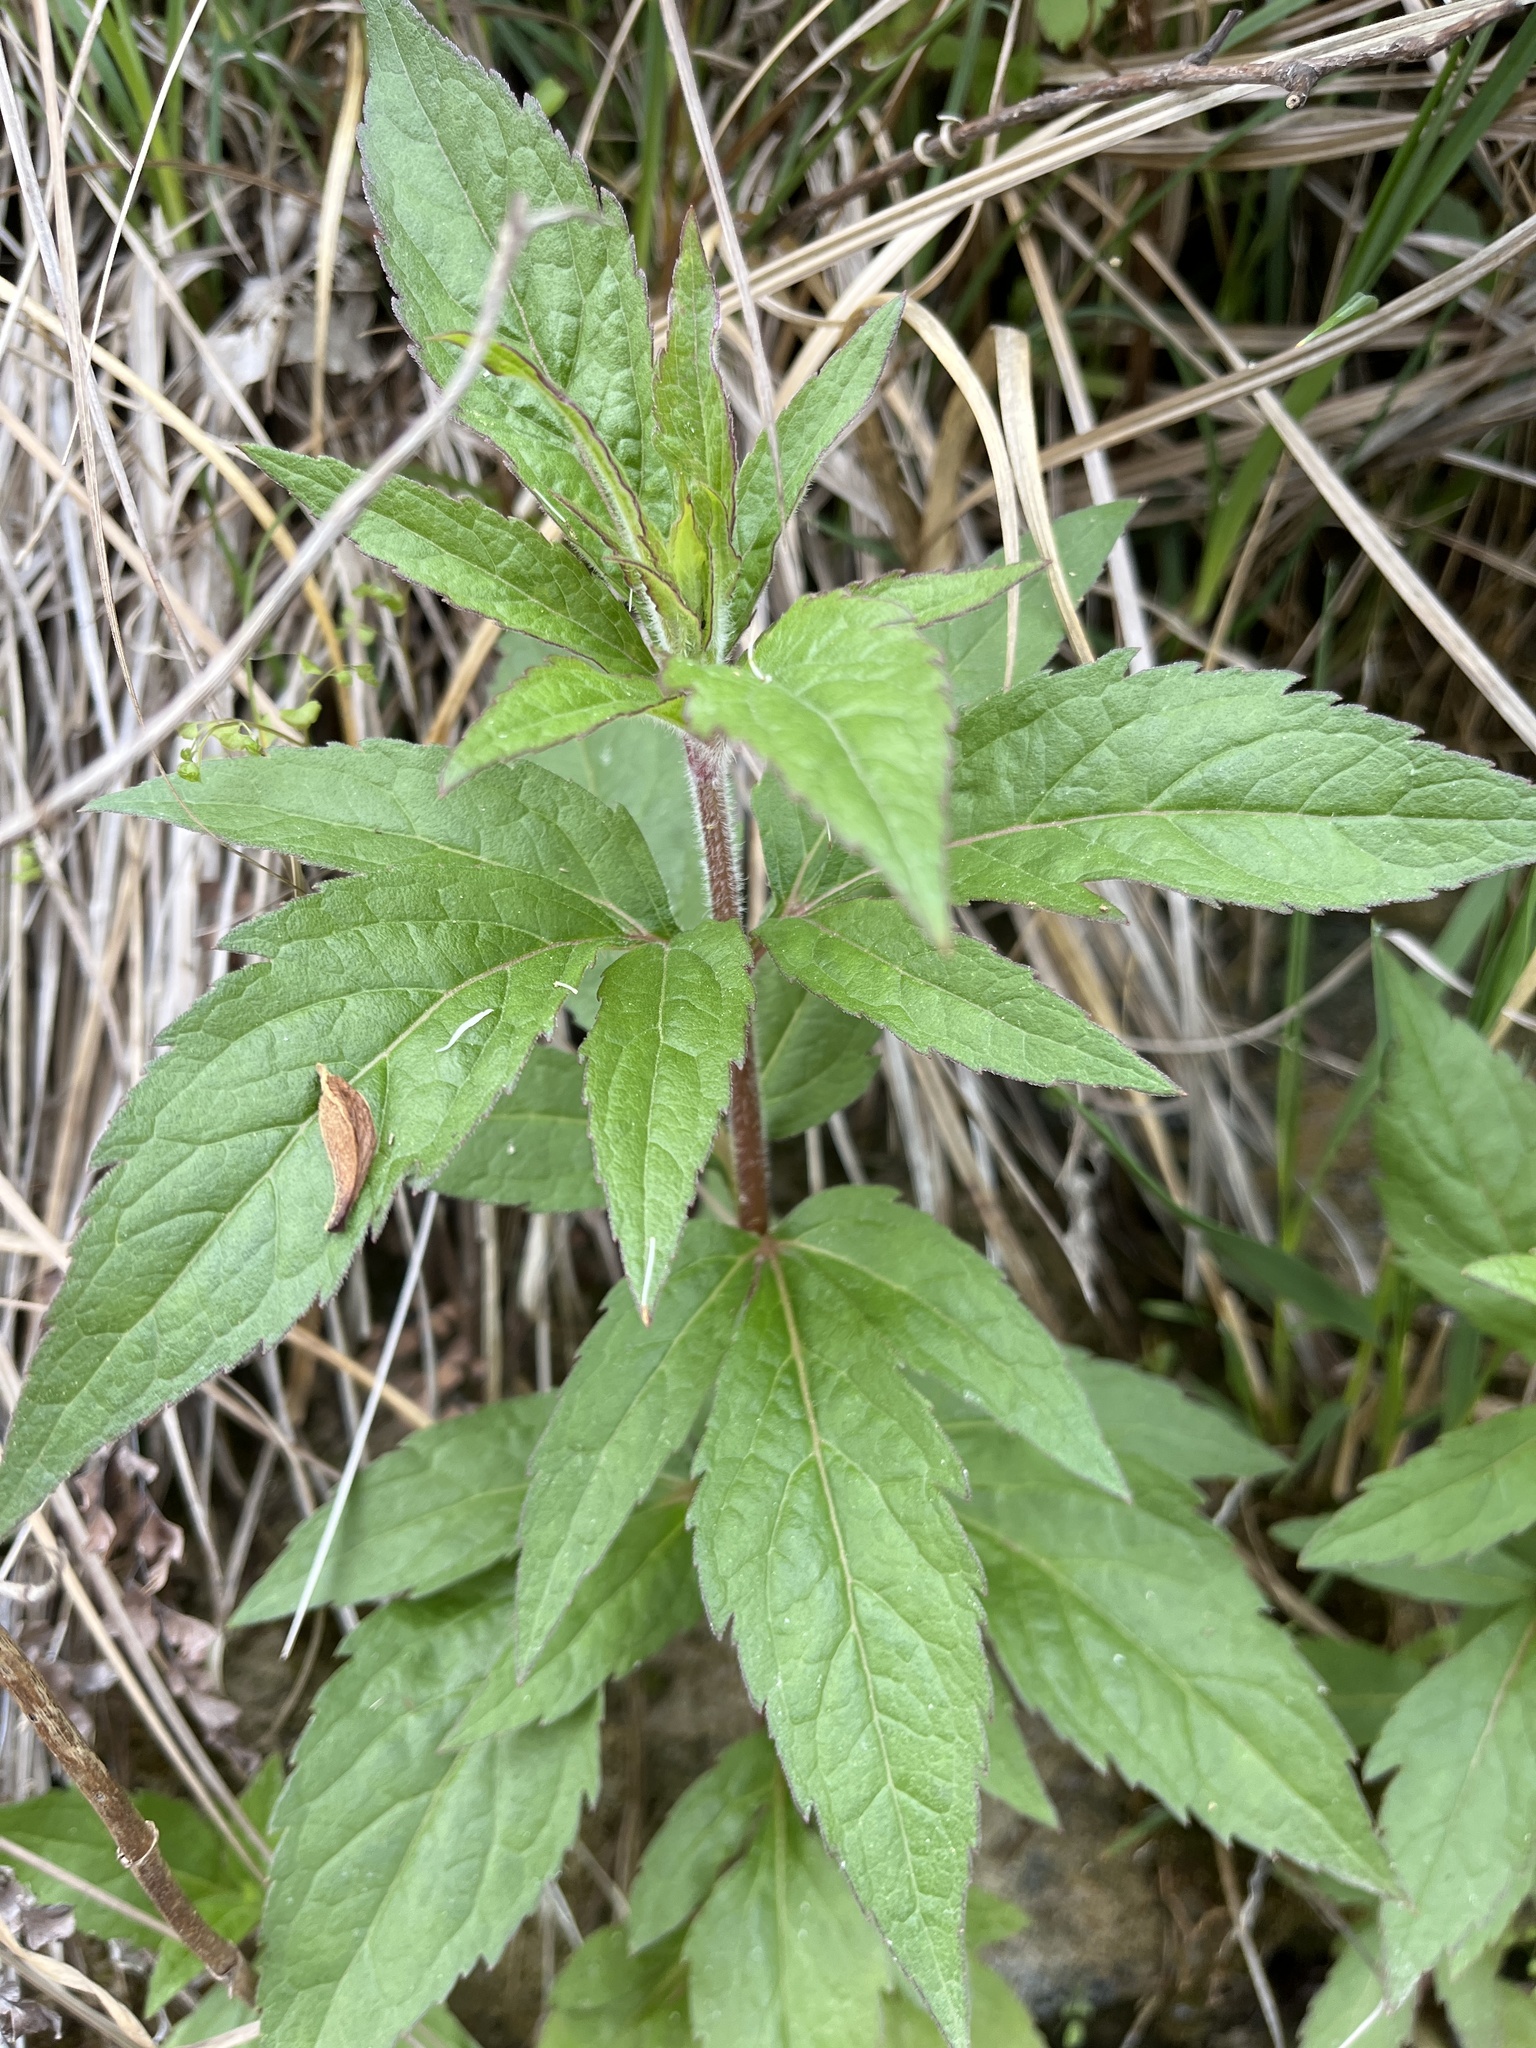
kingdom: Plantae
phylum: Tracheophyta
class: Magnoliopsida
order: Asterales
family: Asteraceae
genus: Eupatorium
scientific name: Eupatorium cannabinum
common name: Hemp-agrimony
